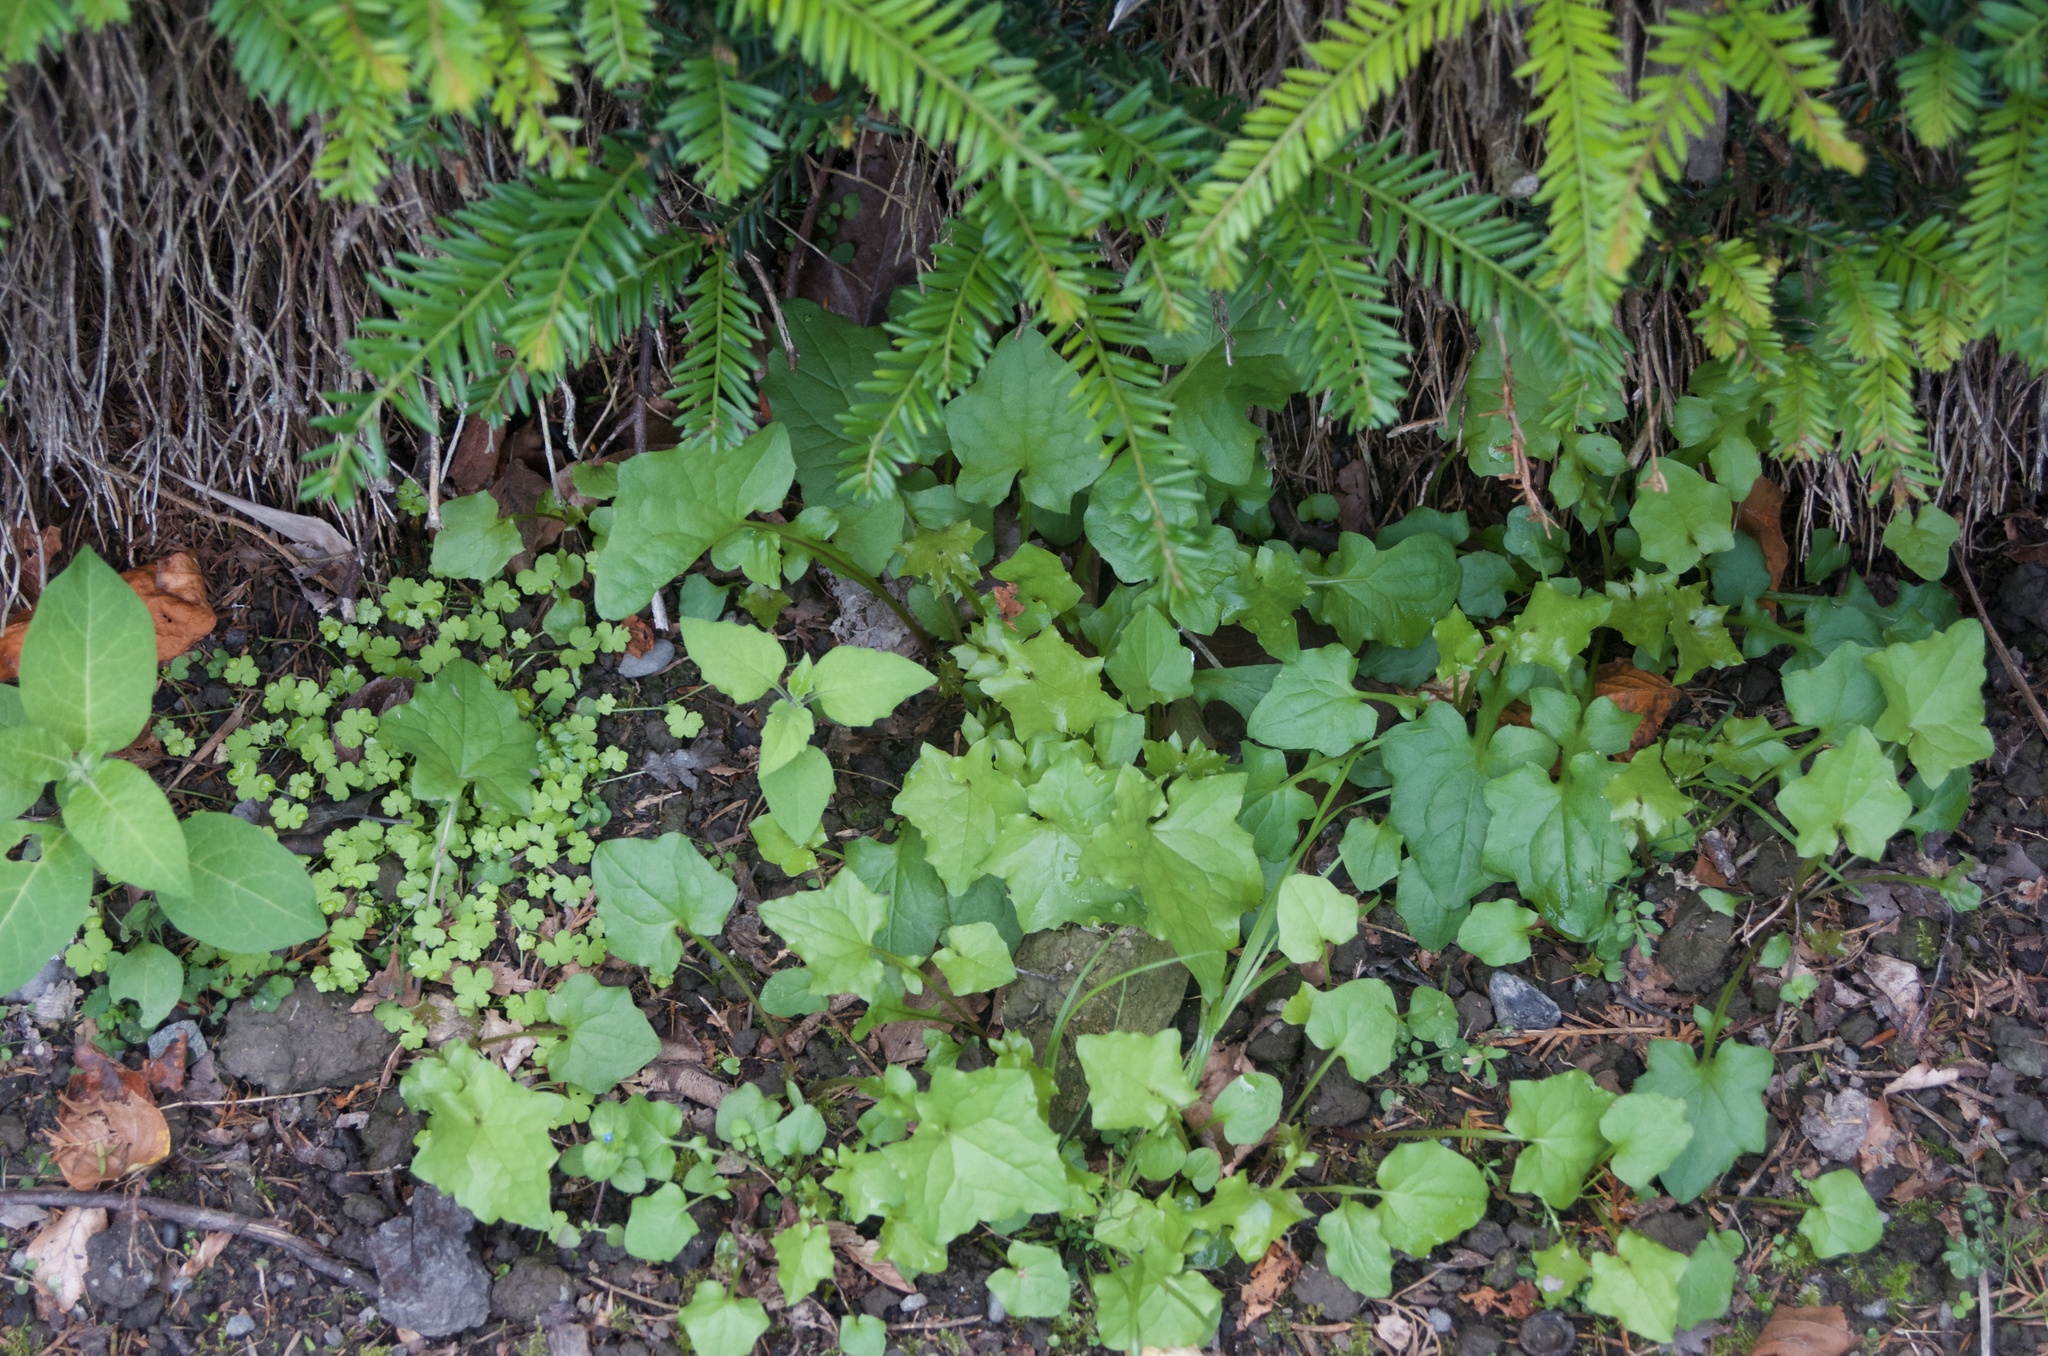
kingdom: Plantae
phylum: Tracheophyta
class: Magnoliopsida
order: Asterales
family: Asteraceae
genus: Mycelis
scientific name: Mycelis muralis
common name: Wall lettuce
